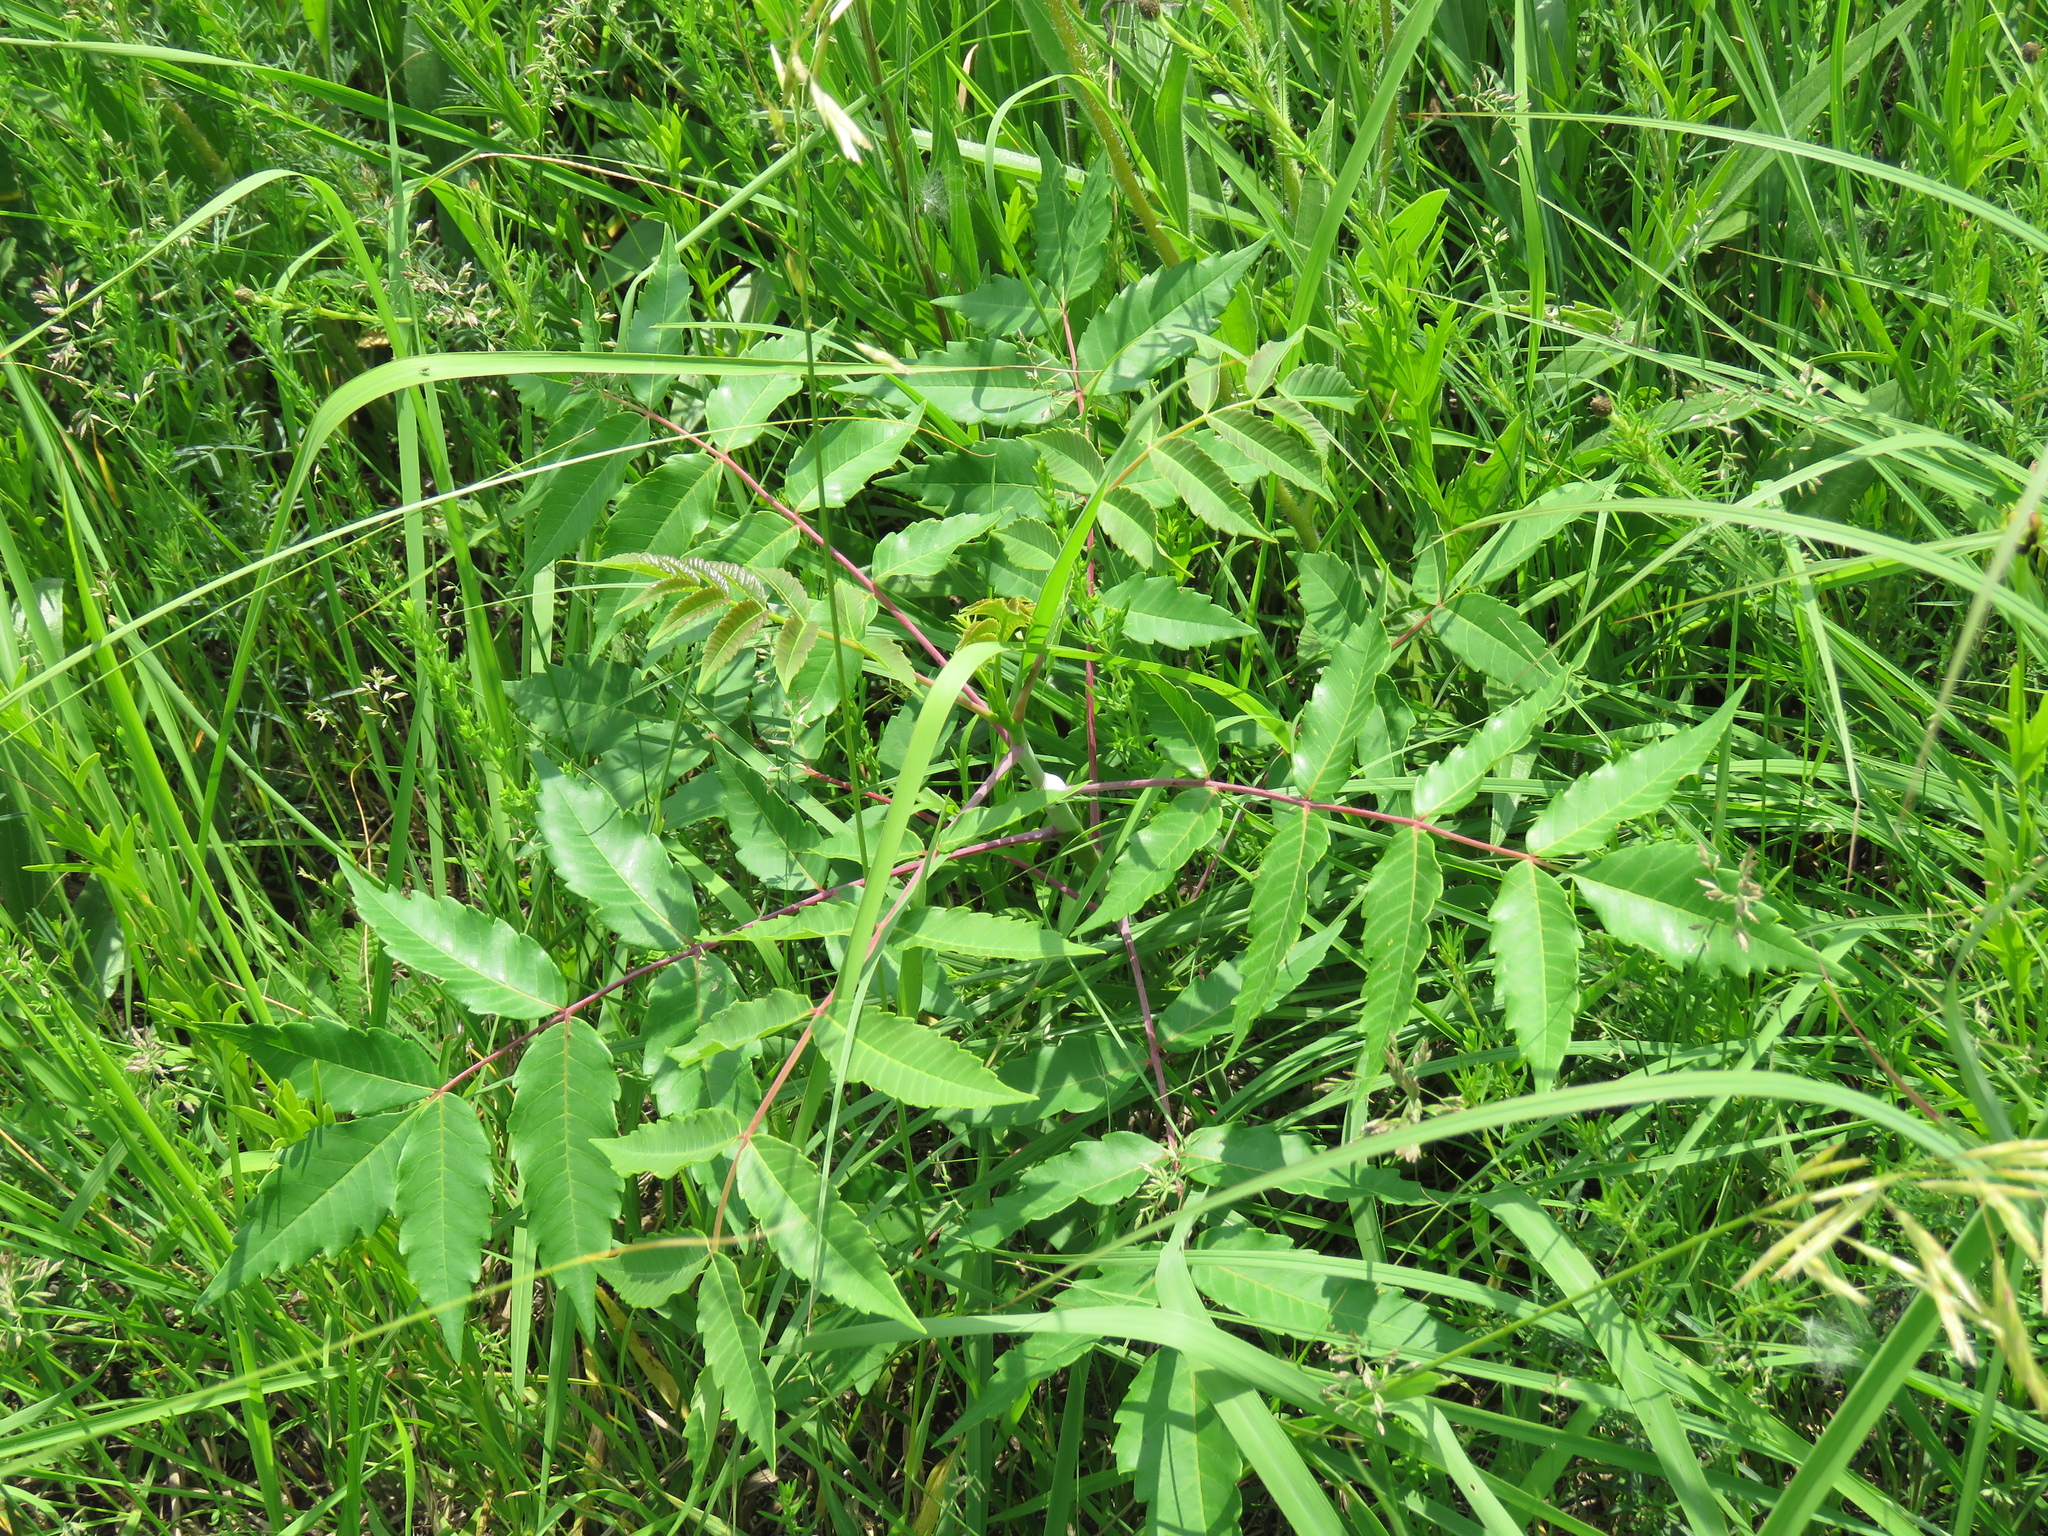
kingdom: Plantae
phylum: Tracheophyta
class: Magnoliopsida
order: Sapindales
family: Anacardiaceae
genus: Rhus
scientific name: Rhus glabra
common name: Scarlet sumac
